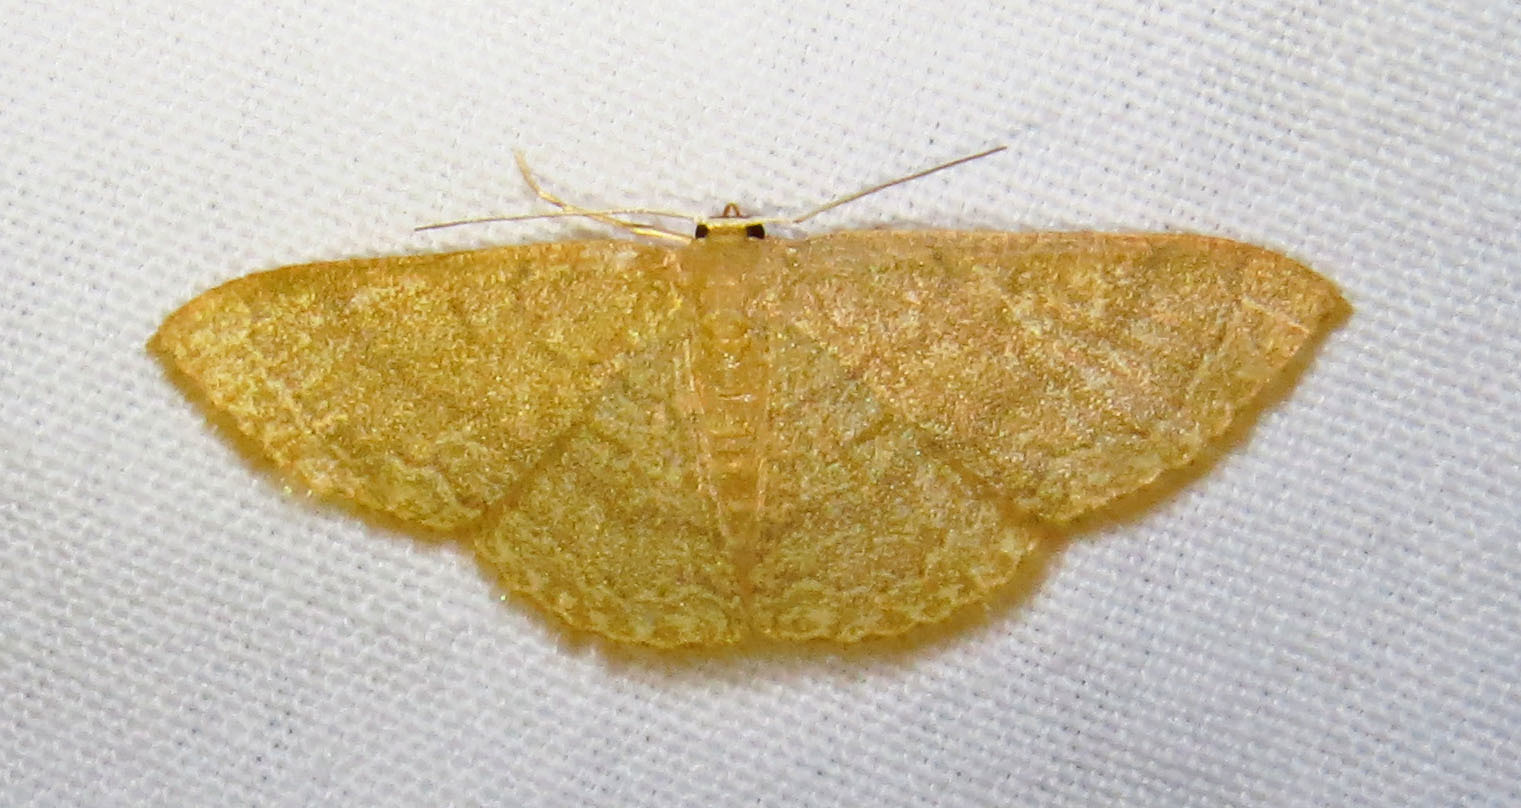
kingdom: Animalia
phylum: Arthropoda
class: Insecta
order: Lepidoptera
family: Geometridae
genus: Pleuroprucha
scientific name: Pleuroprucha insulsaria
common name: Common tan wave
